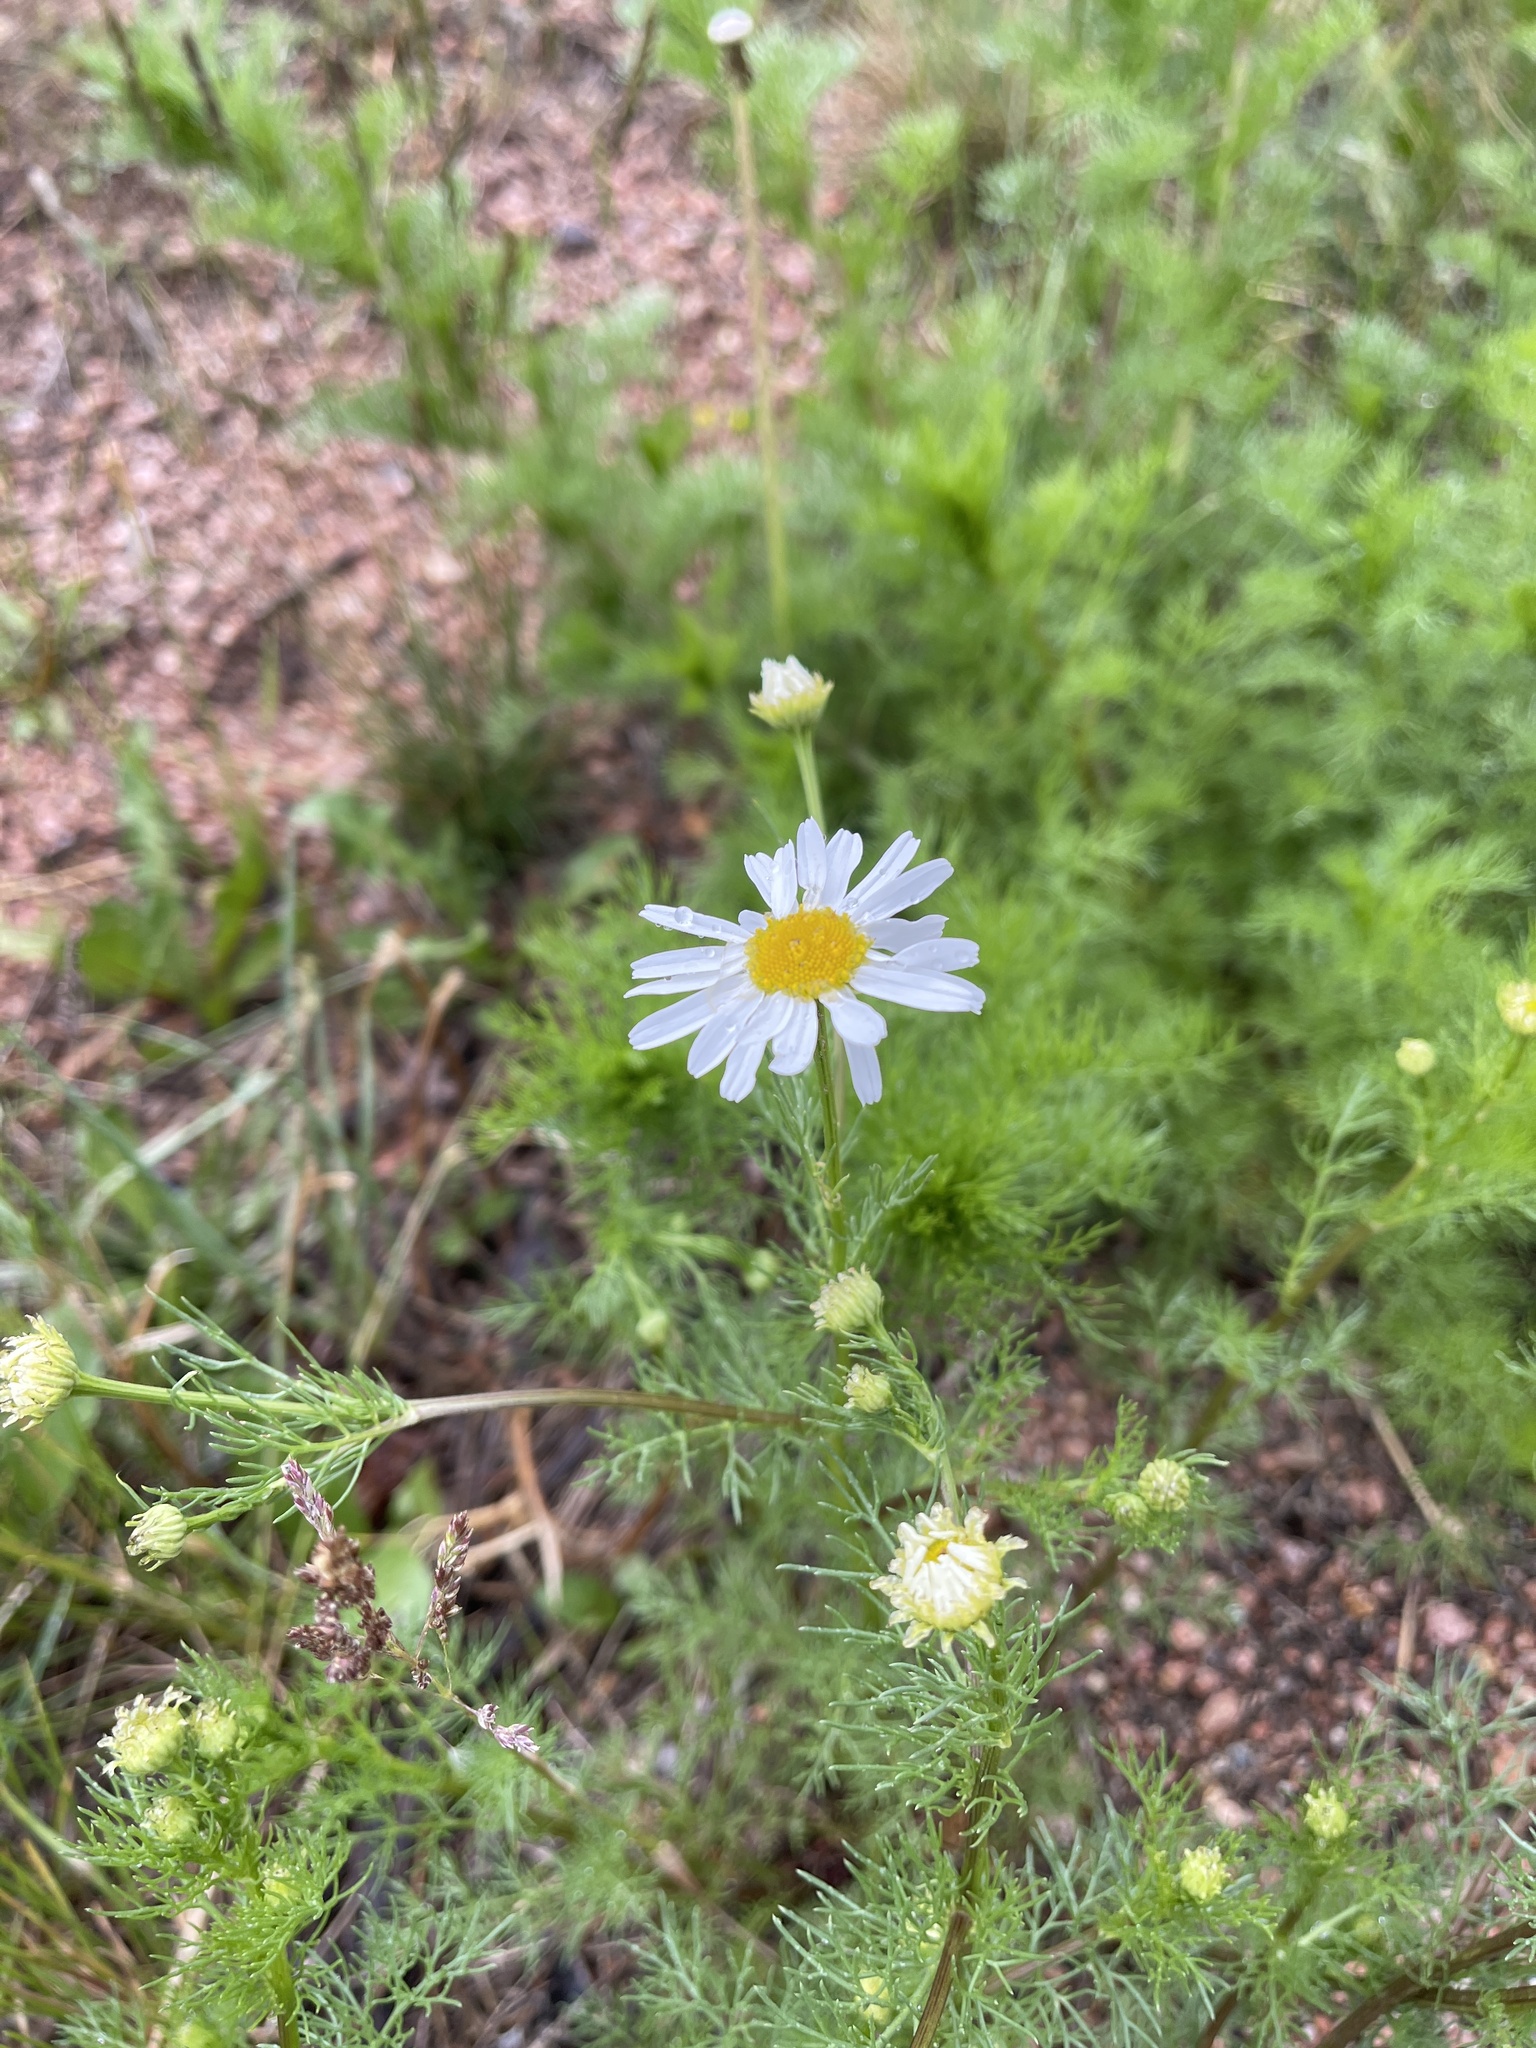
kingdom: Plantae
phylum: Tracheophyta
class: Magnoliopsida
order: Asterales
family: Asteraceae
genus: Tripleurospermum
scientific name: Tripleurospermum inodorum
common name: Scentless mayweed
